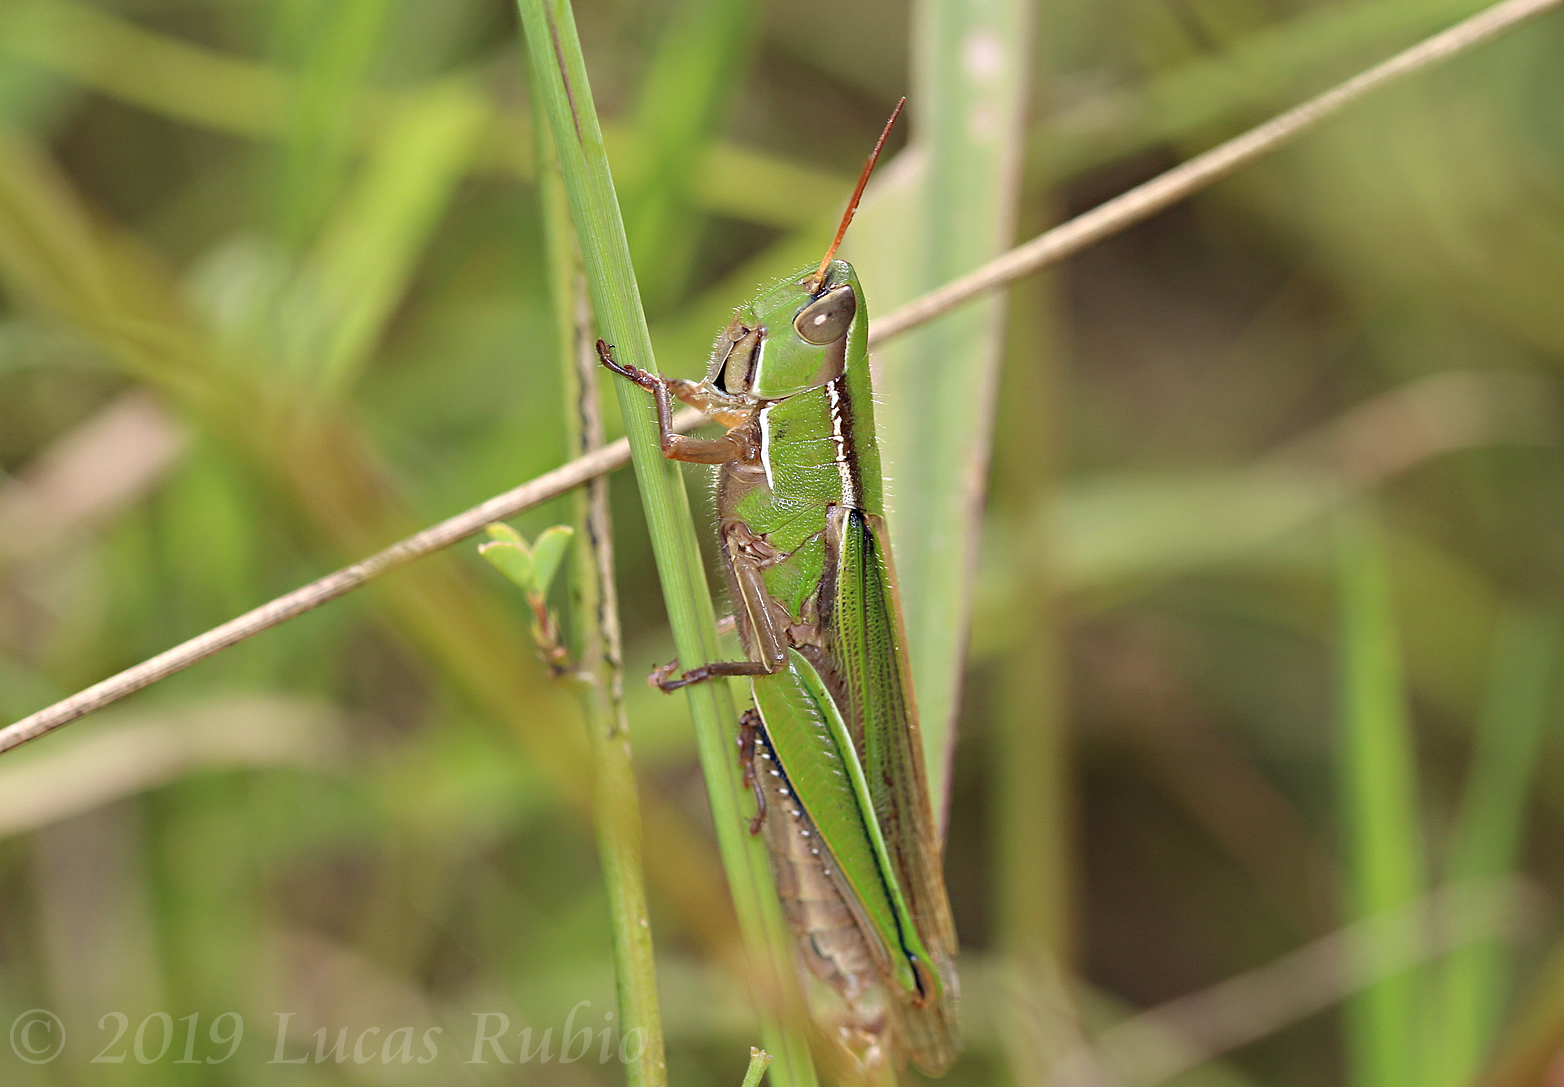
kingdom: Animalia
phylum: Arthropoda
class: Insecta
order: Orthoptera
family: Acrididae
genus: Aleuas
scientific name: Aleuas lineatus
